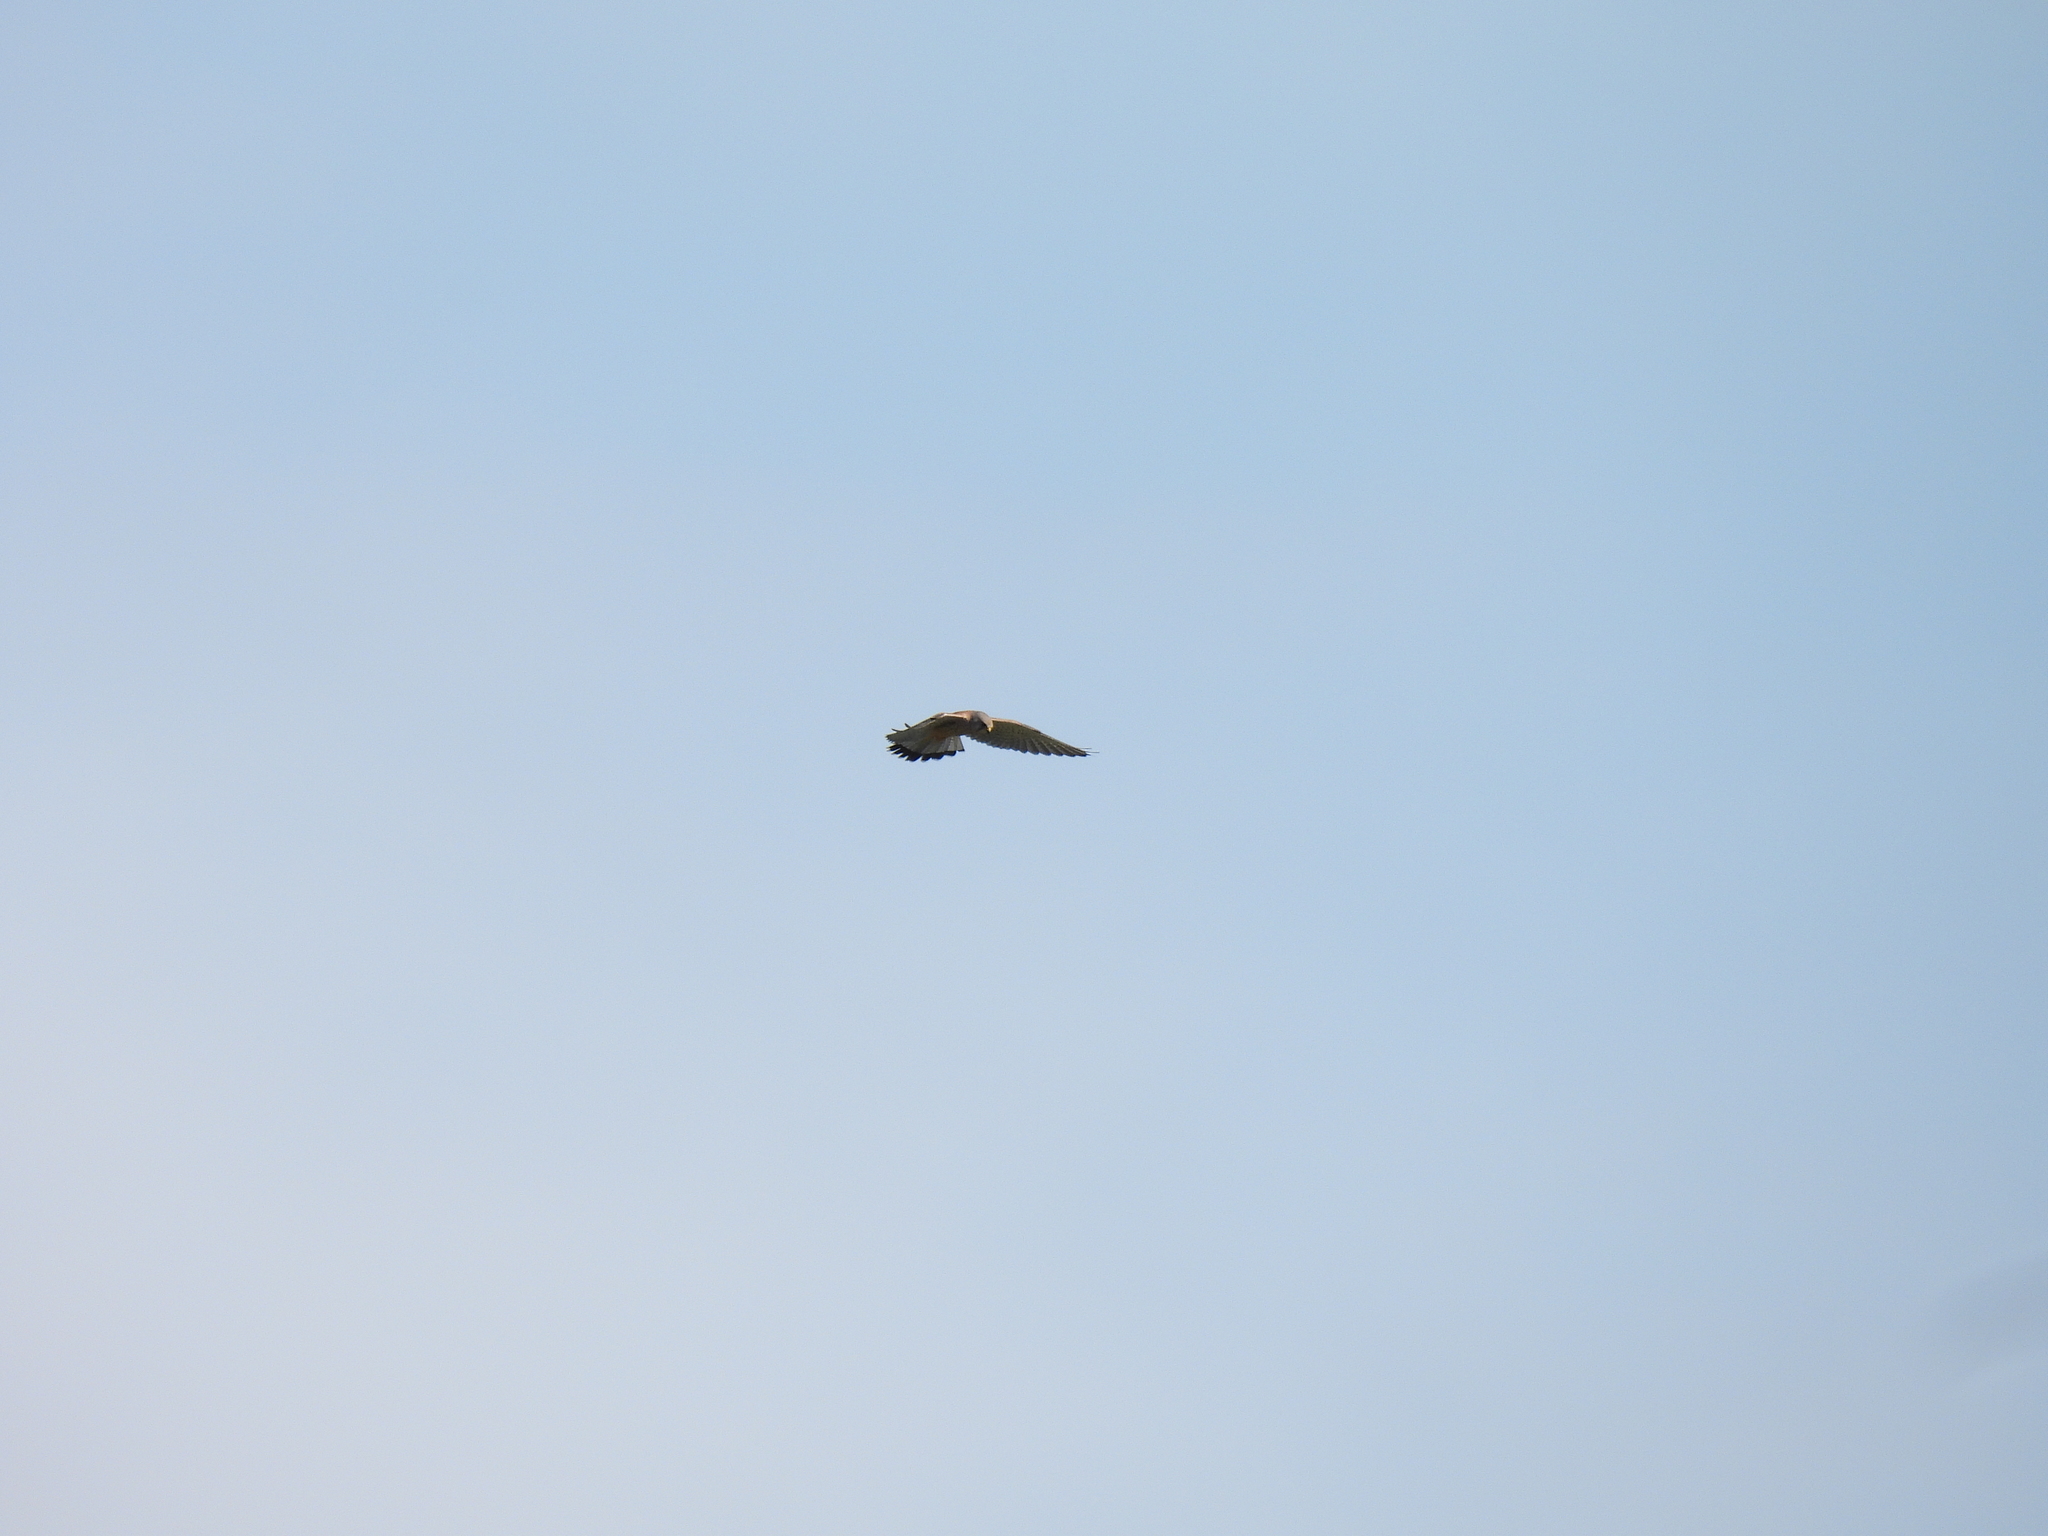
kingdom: Animalia
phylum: Chordata
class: Aves
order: Falconiformes
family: Falconidae
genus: Falco
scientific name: Falco tinnunculus
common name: Common kestrel
